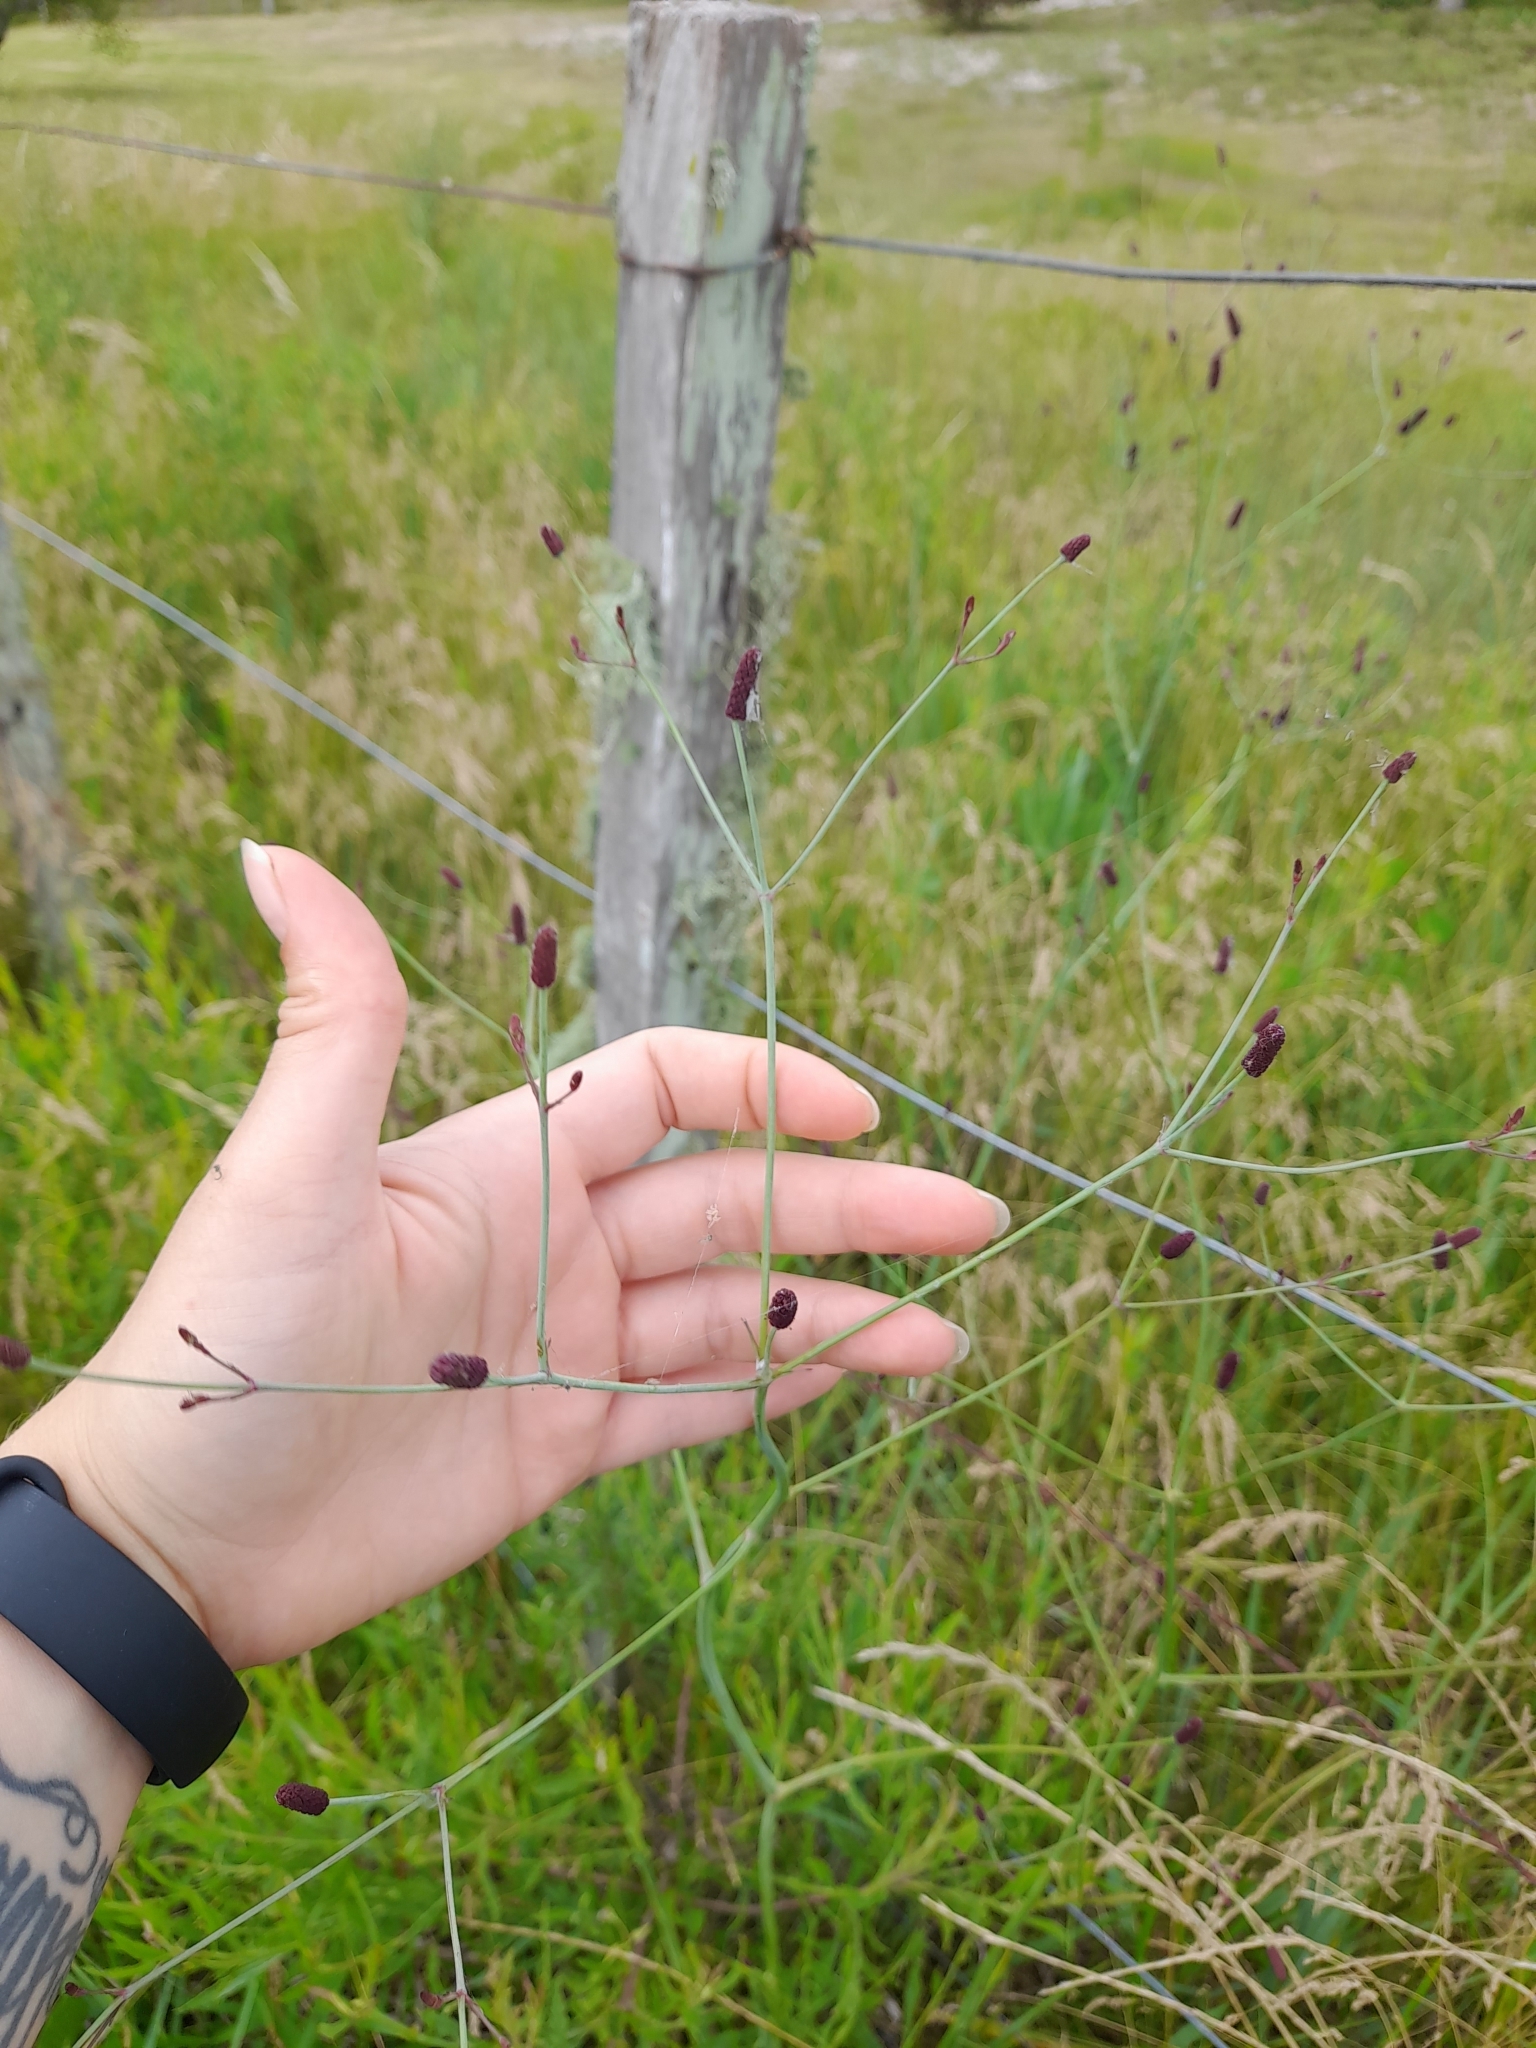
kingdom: Plantae
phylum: Tracheophyta
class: Magnoliopsida
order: Apiales
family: Apiaceae
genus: Eryngium
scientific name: Eryngium ebracteatum
